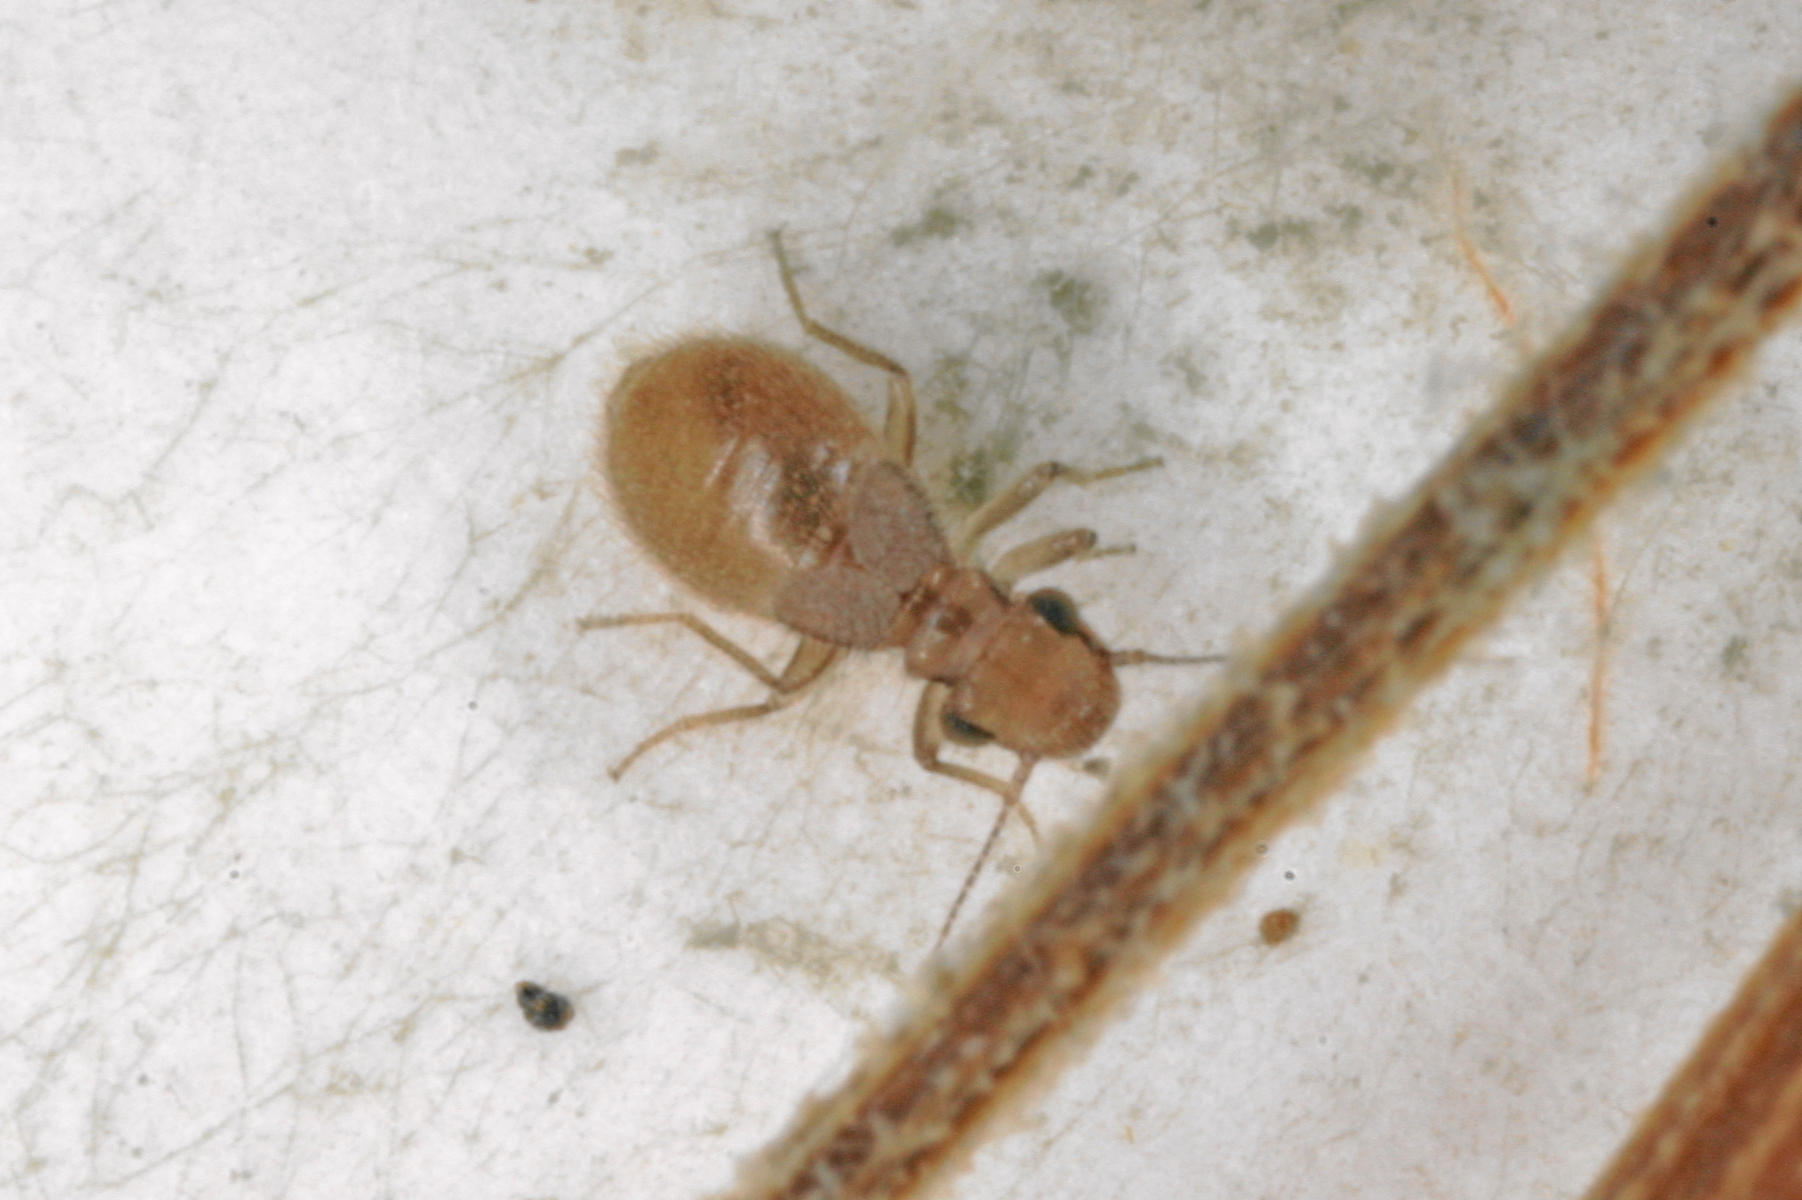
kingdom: Animalia
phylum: Arthropoda
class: Insecta
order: Psocodea
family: Trogiidae
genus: Lepinotus
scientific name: Lepinotus patruelis
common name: Granary book louse
